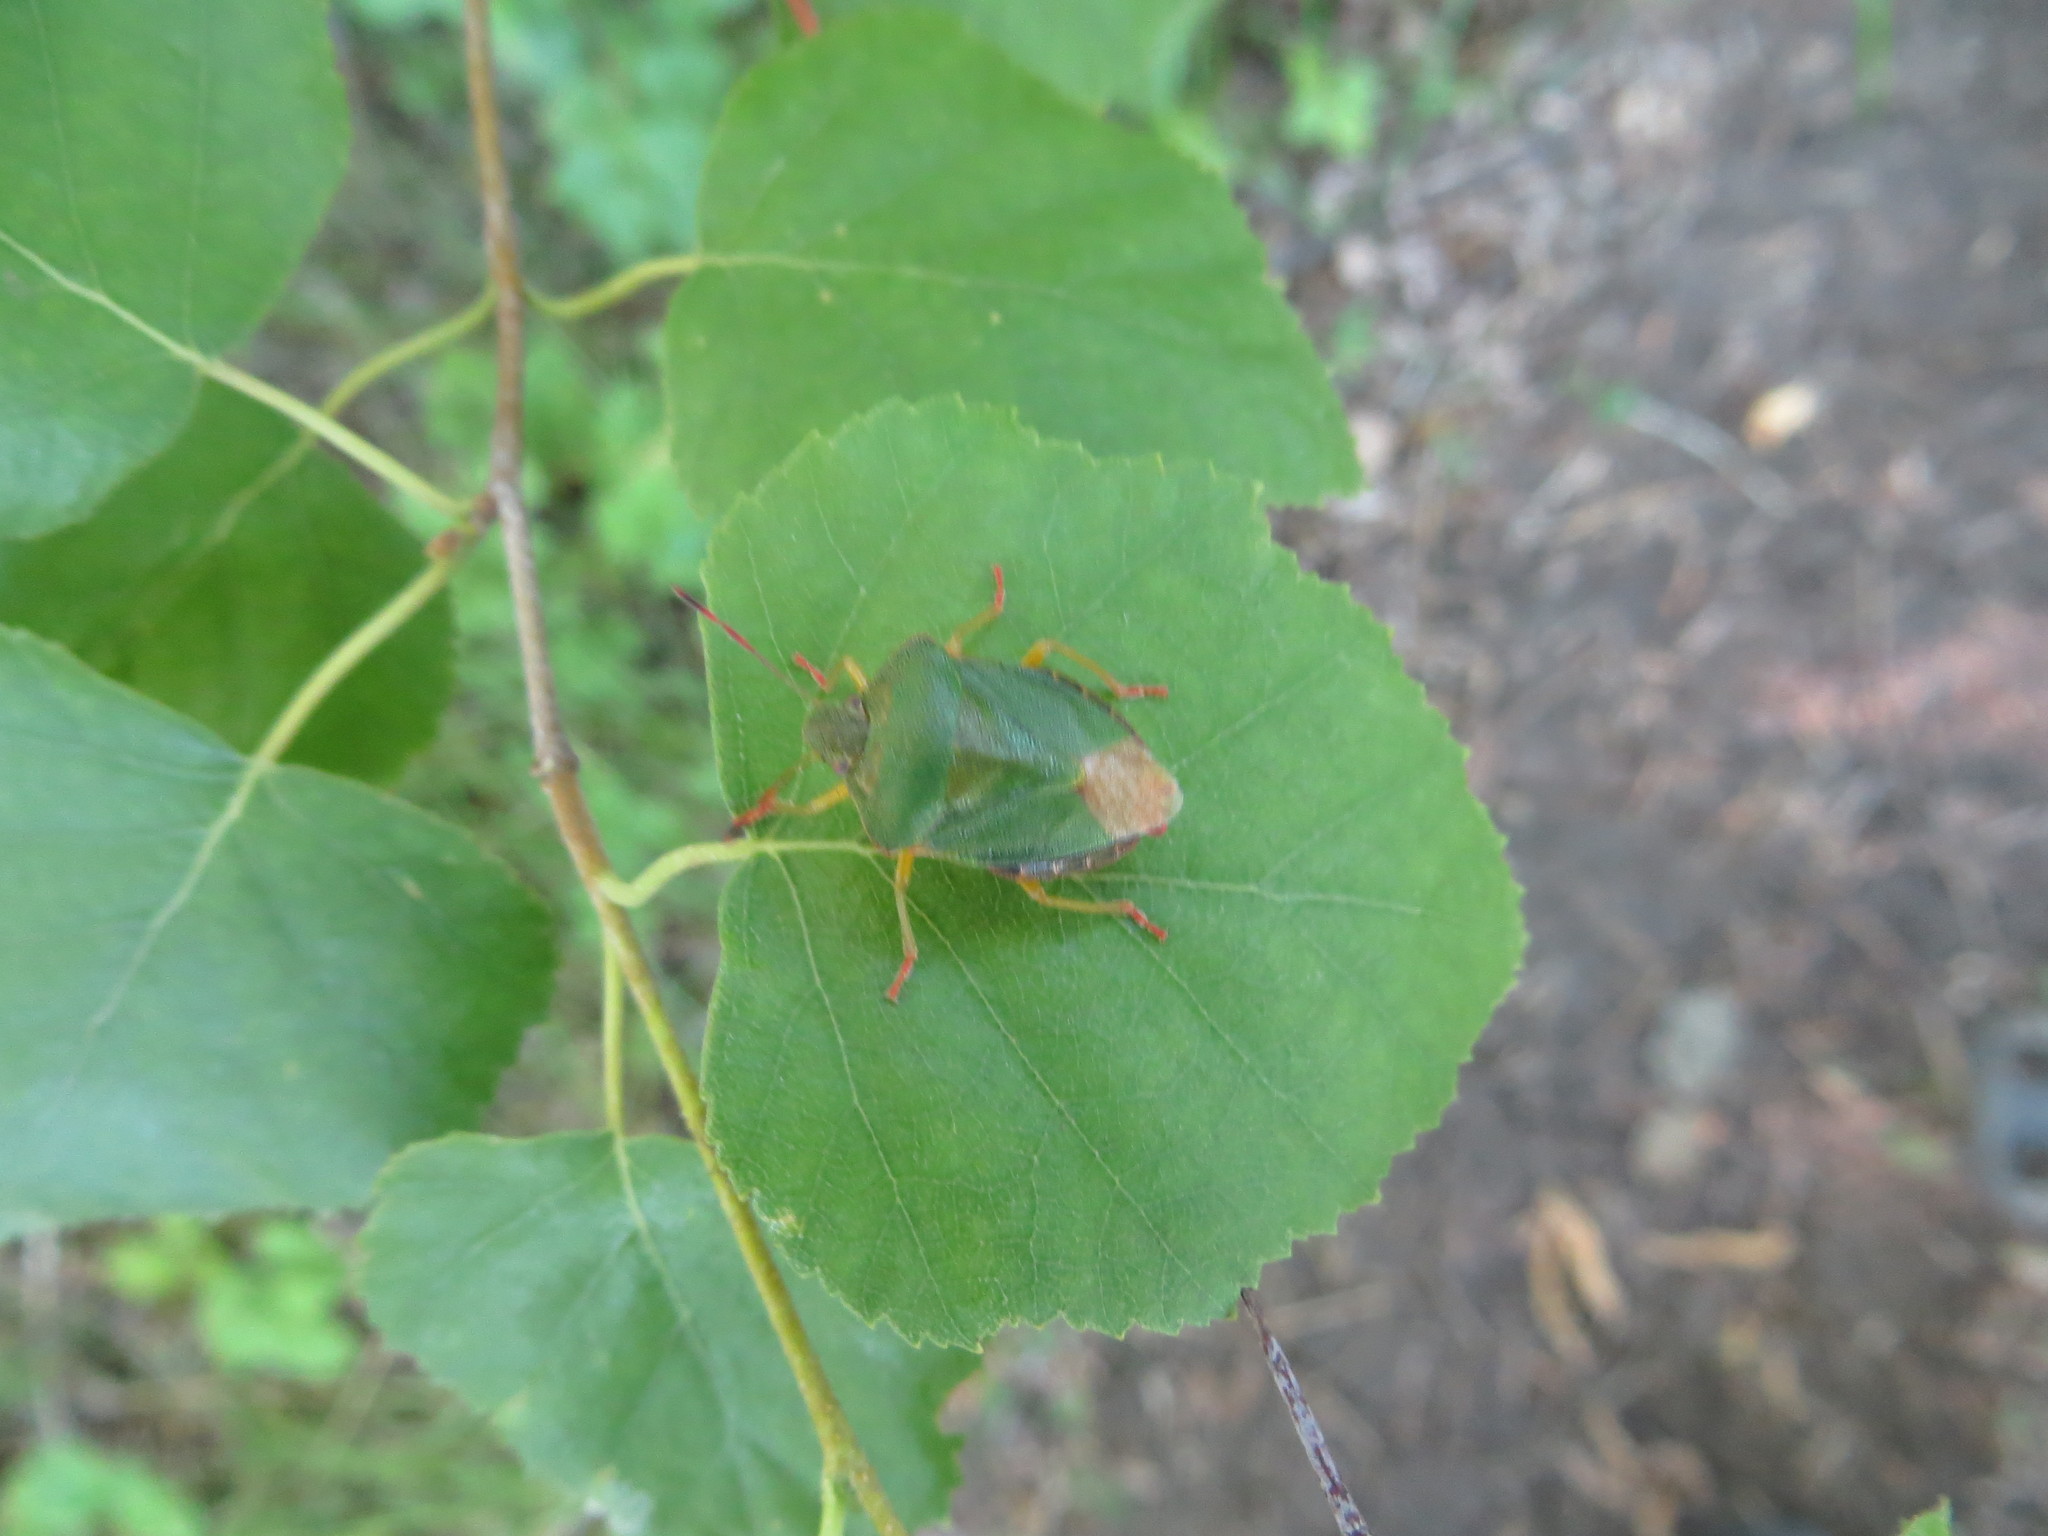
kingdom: Animalia
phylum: Arthropoda
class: Insecta
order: Hemiptera
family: Pentatomidae
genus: Palomena
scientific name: Palomena prasina
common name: Green shieldbug
